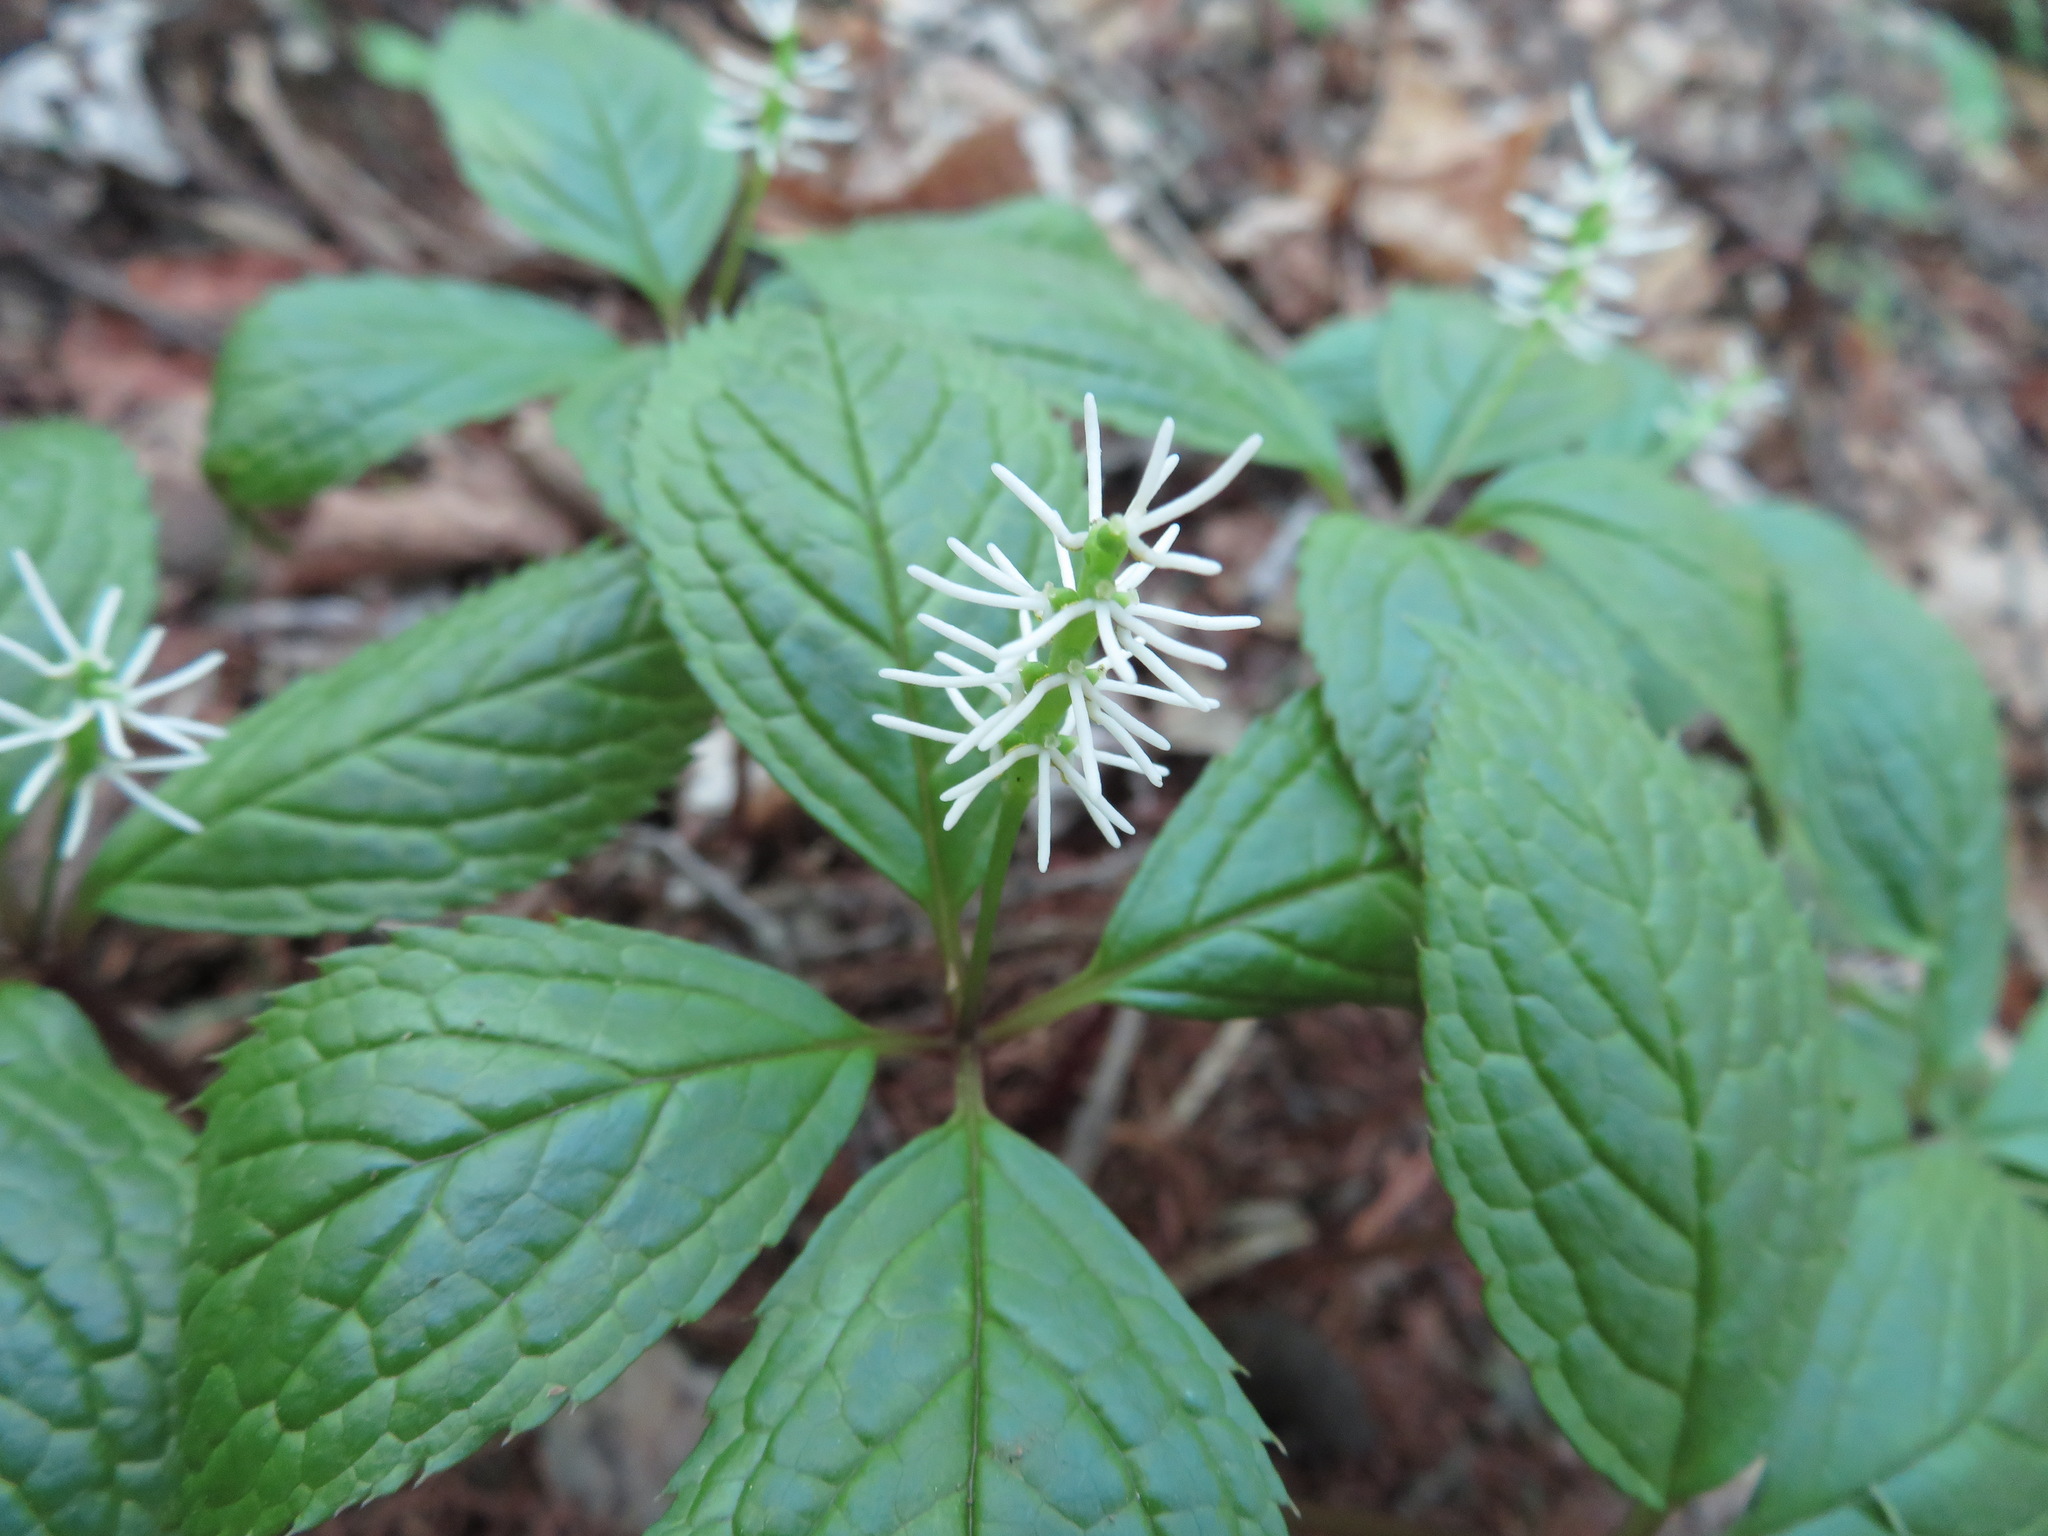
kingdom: Plantae
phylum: Tracheophyta
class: Magnoliopsida
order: Chloranthales
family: Chloranthaceae
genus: Chloranthus
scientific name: Chloranthus quadrifolius
